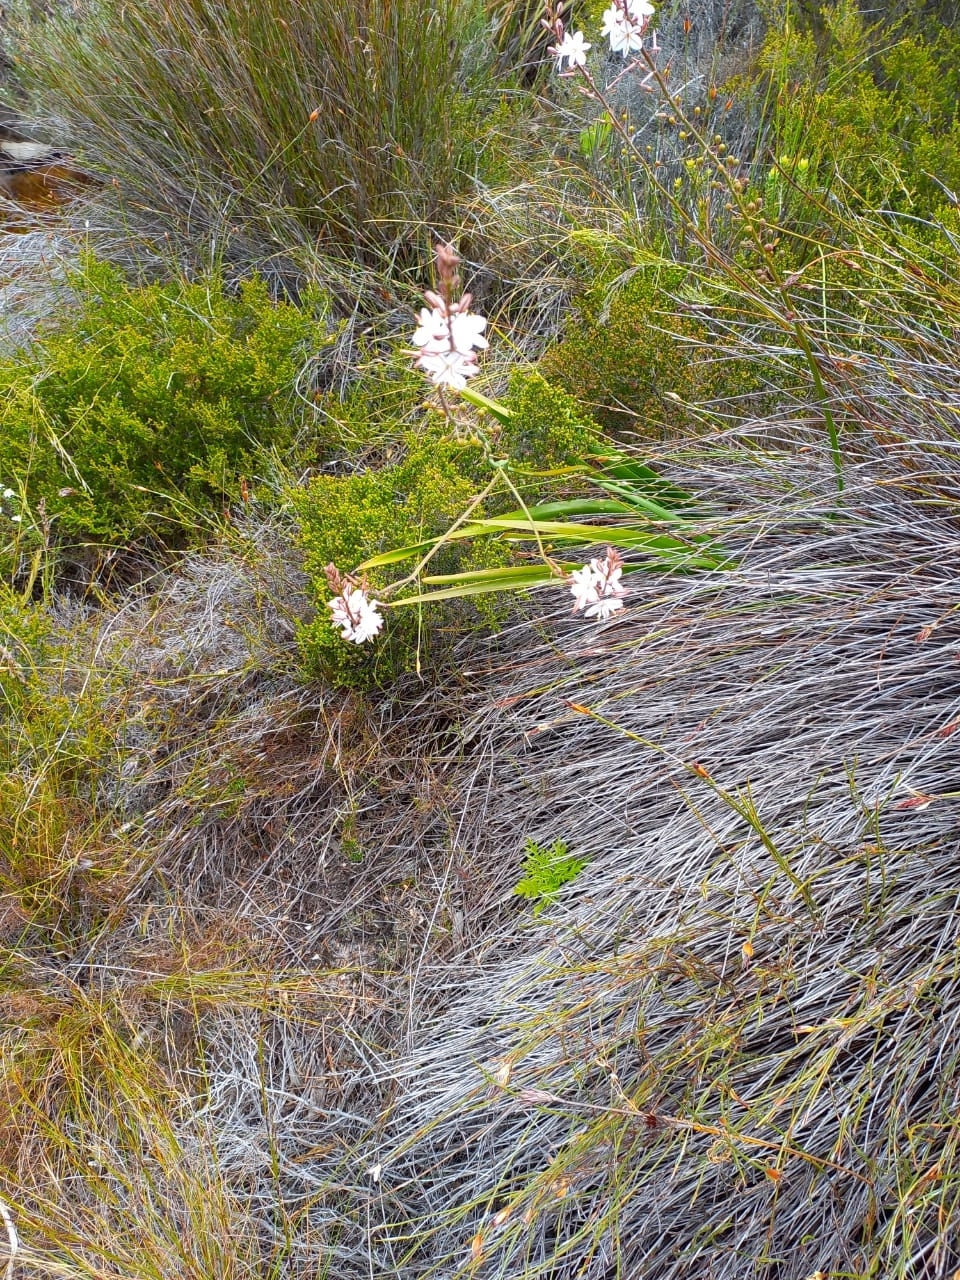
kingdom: Plantae
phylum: Tracheophyta
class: Liliopsida
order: Asparagales
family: Asphodelaceae
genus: Trachyandra
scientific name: Trachyandra tabularis
